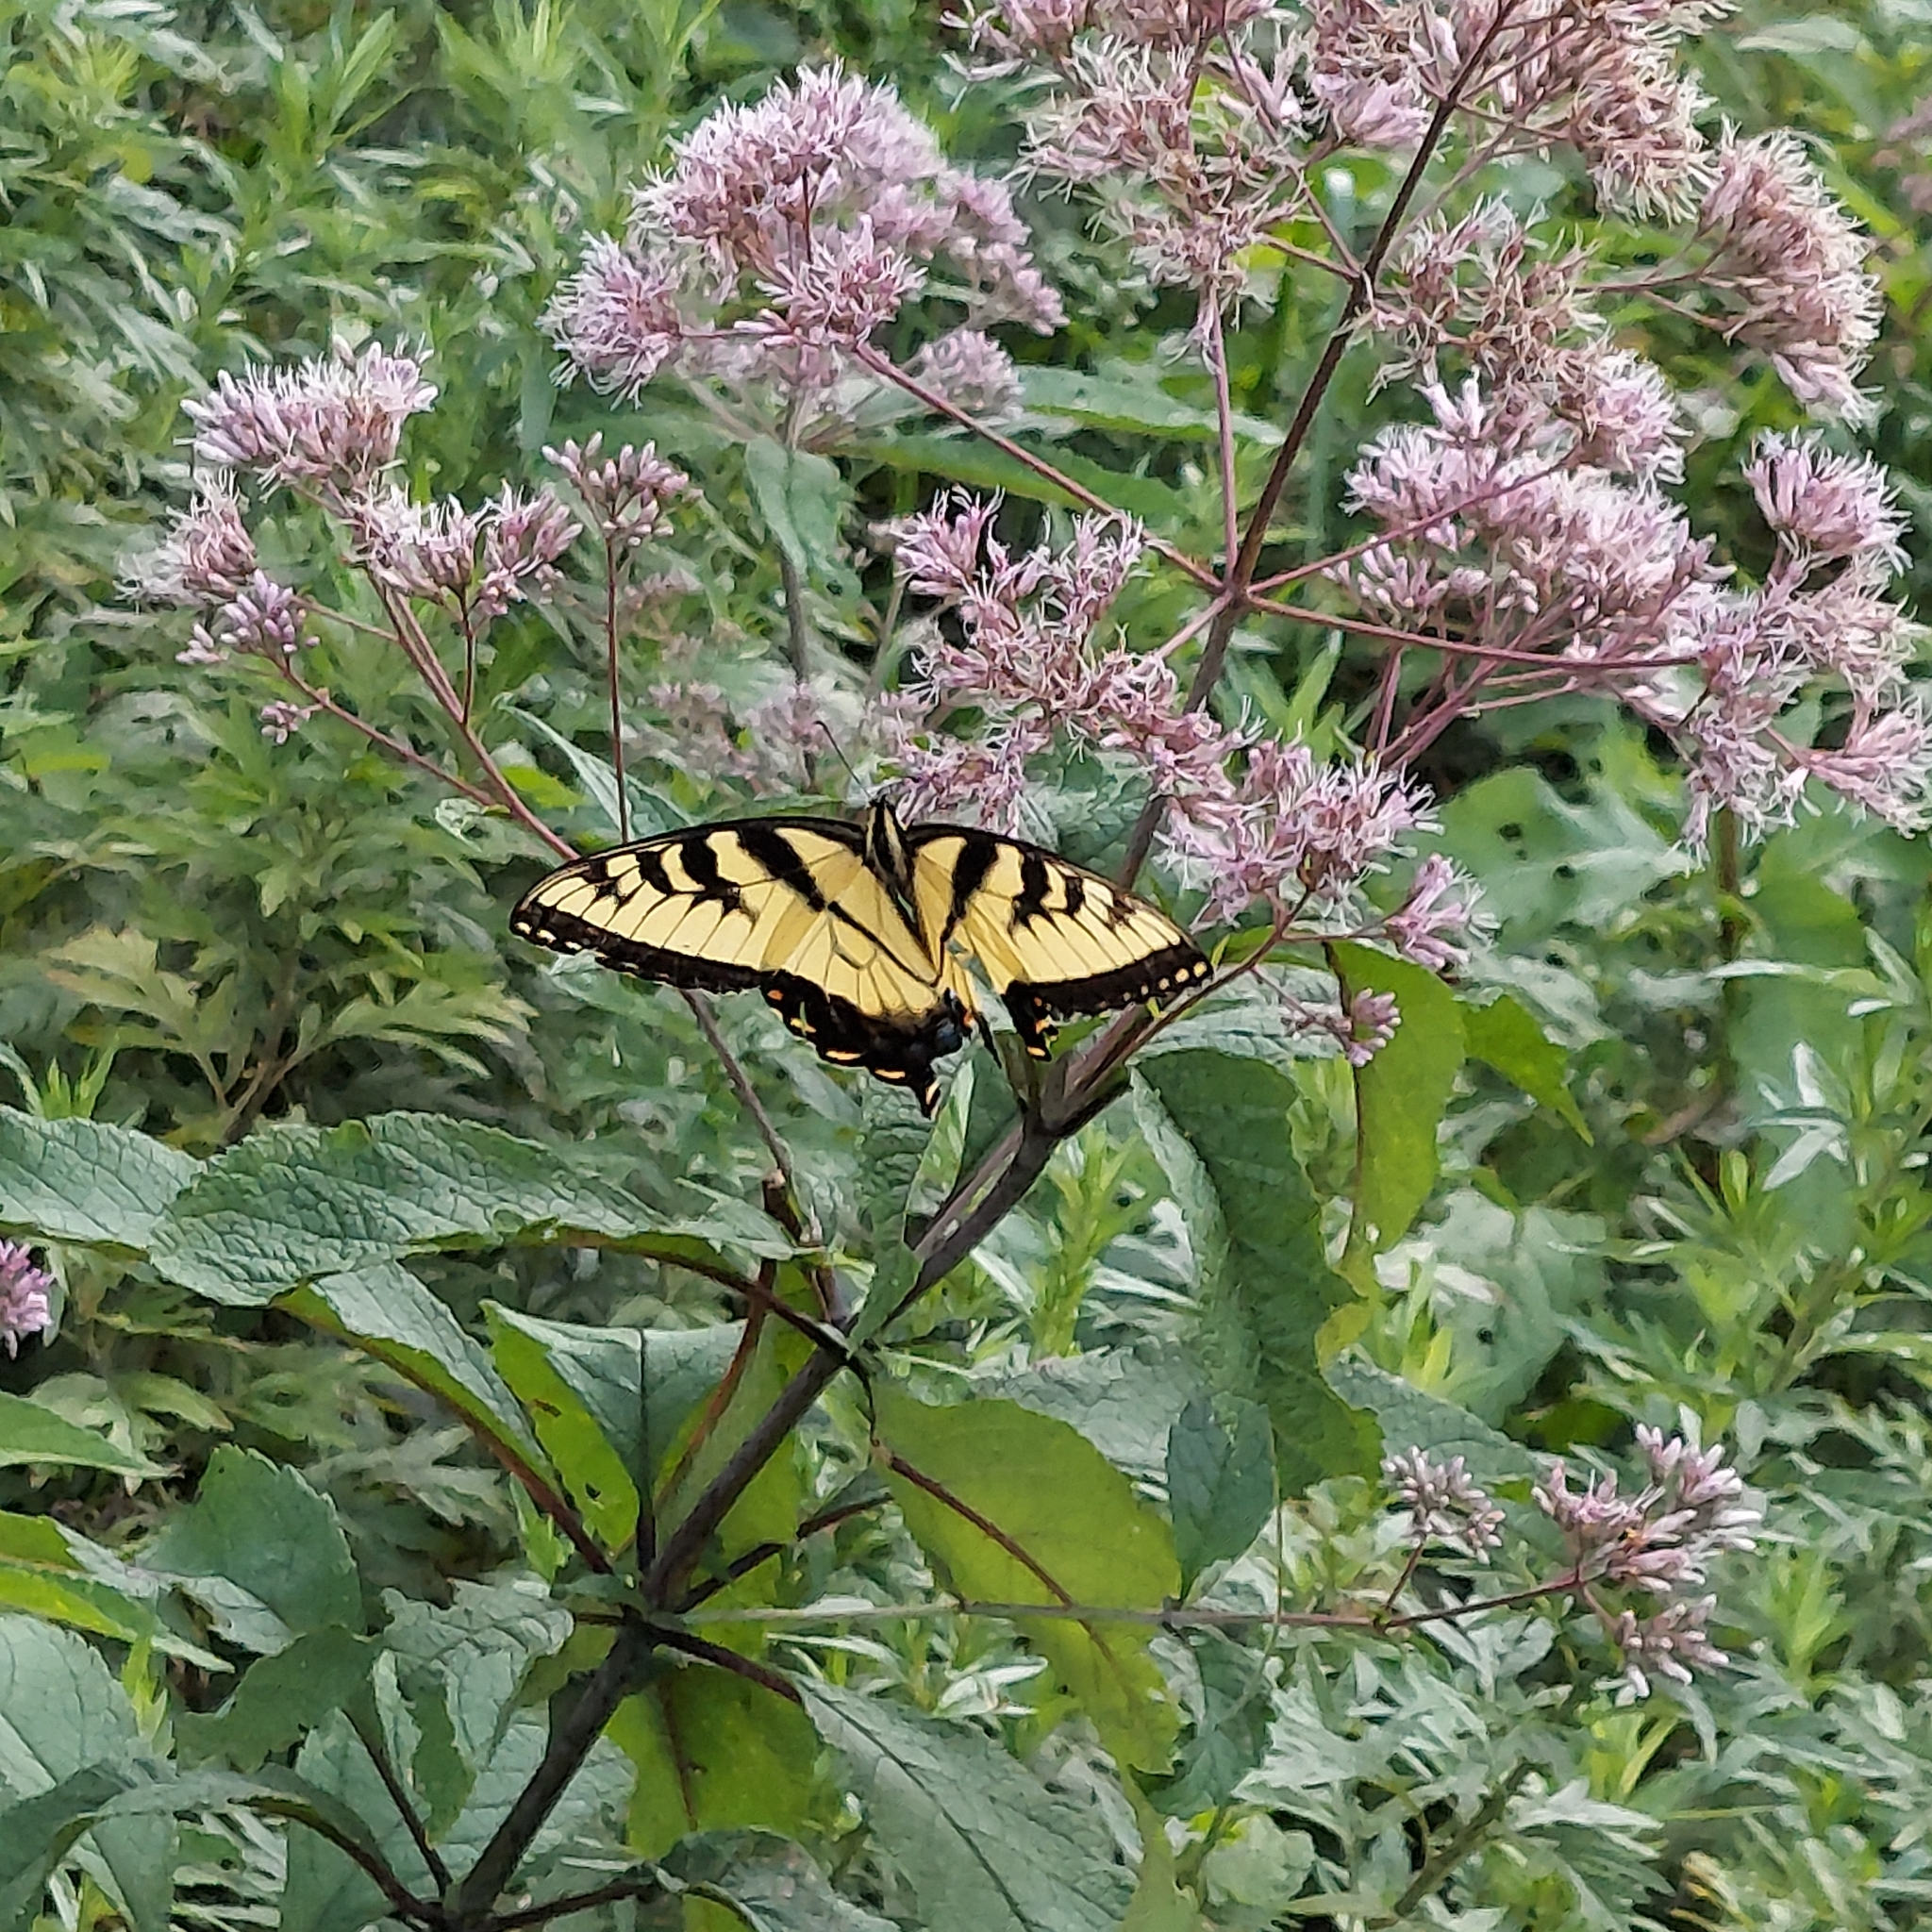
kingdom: Animalia
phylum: Arthropoda
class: Insecta
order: Lepidoptera
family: Papilionidae
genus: Papilio
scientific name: Papilio glaucus
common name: Tiger swallowtail
